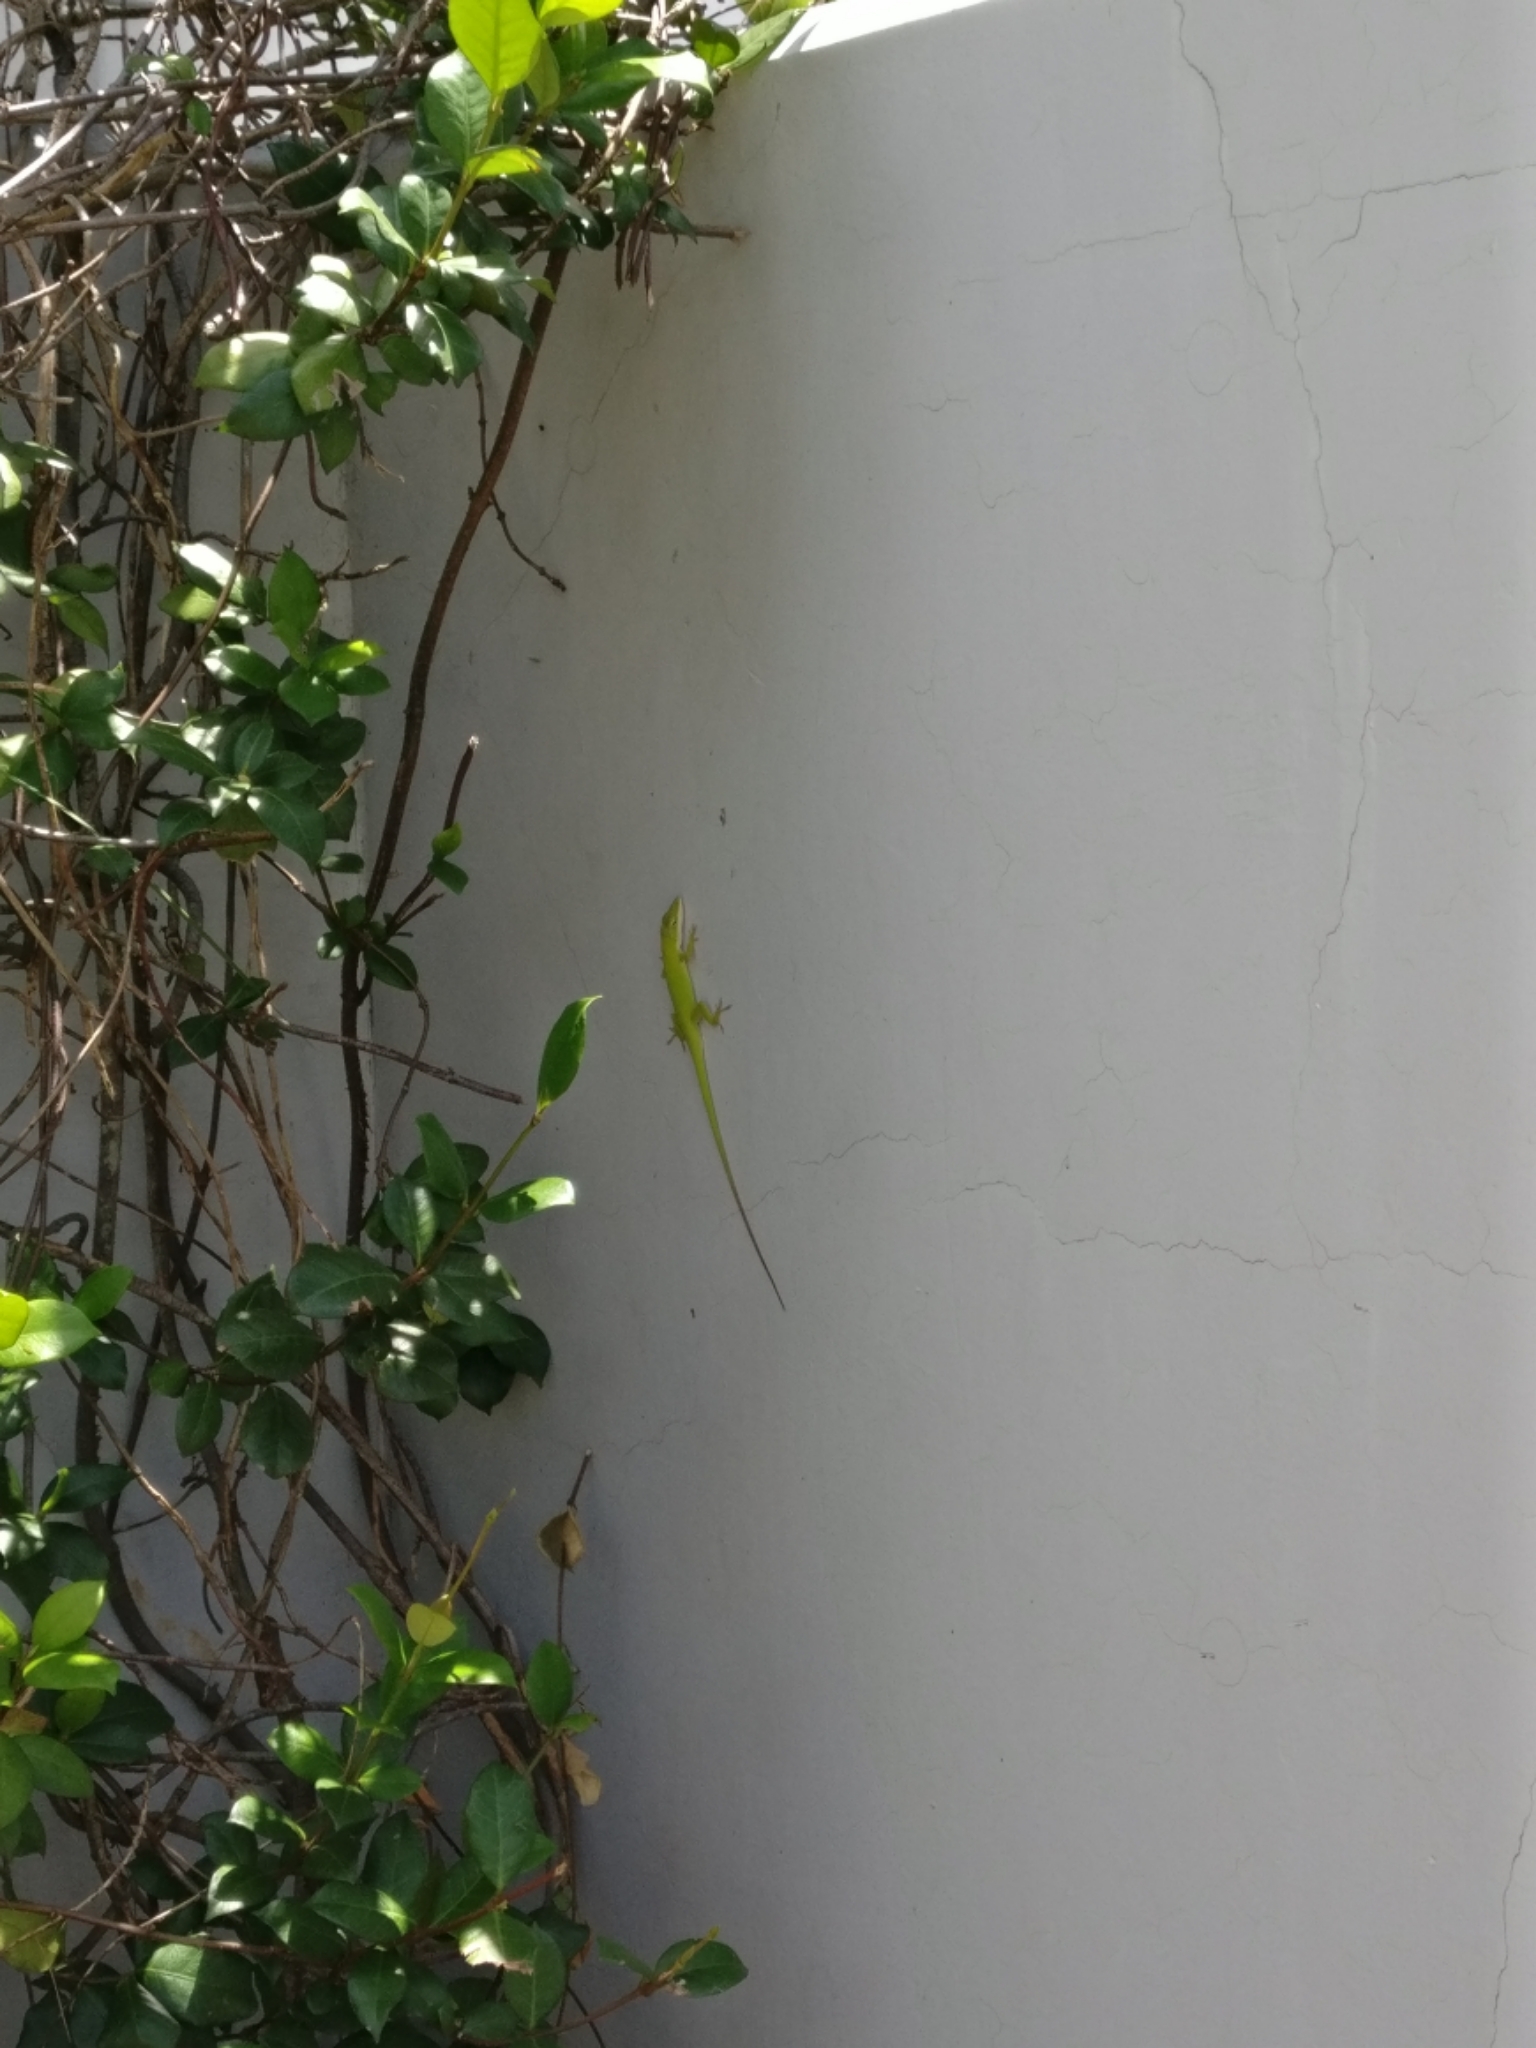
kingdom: Animalia
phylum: Chordata
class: Squamata
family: Dactyloidae
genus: Anolis
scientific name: Anolis carolinensis
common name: Green anole
